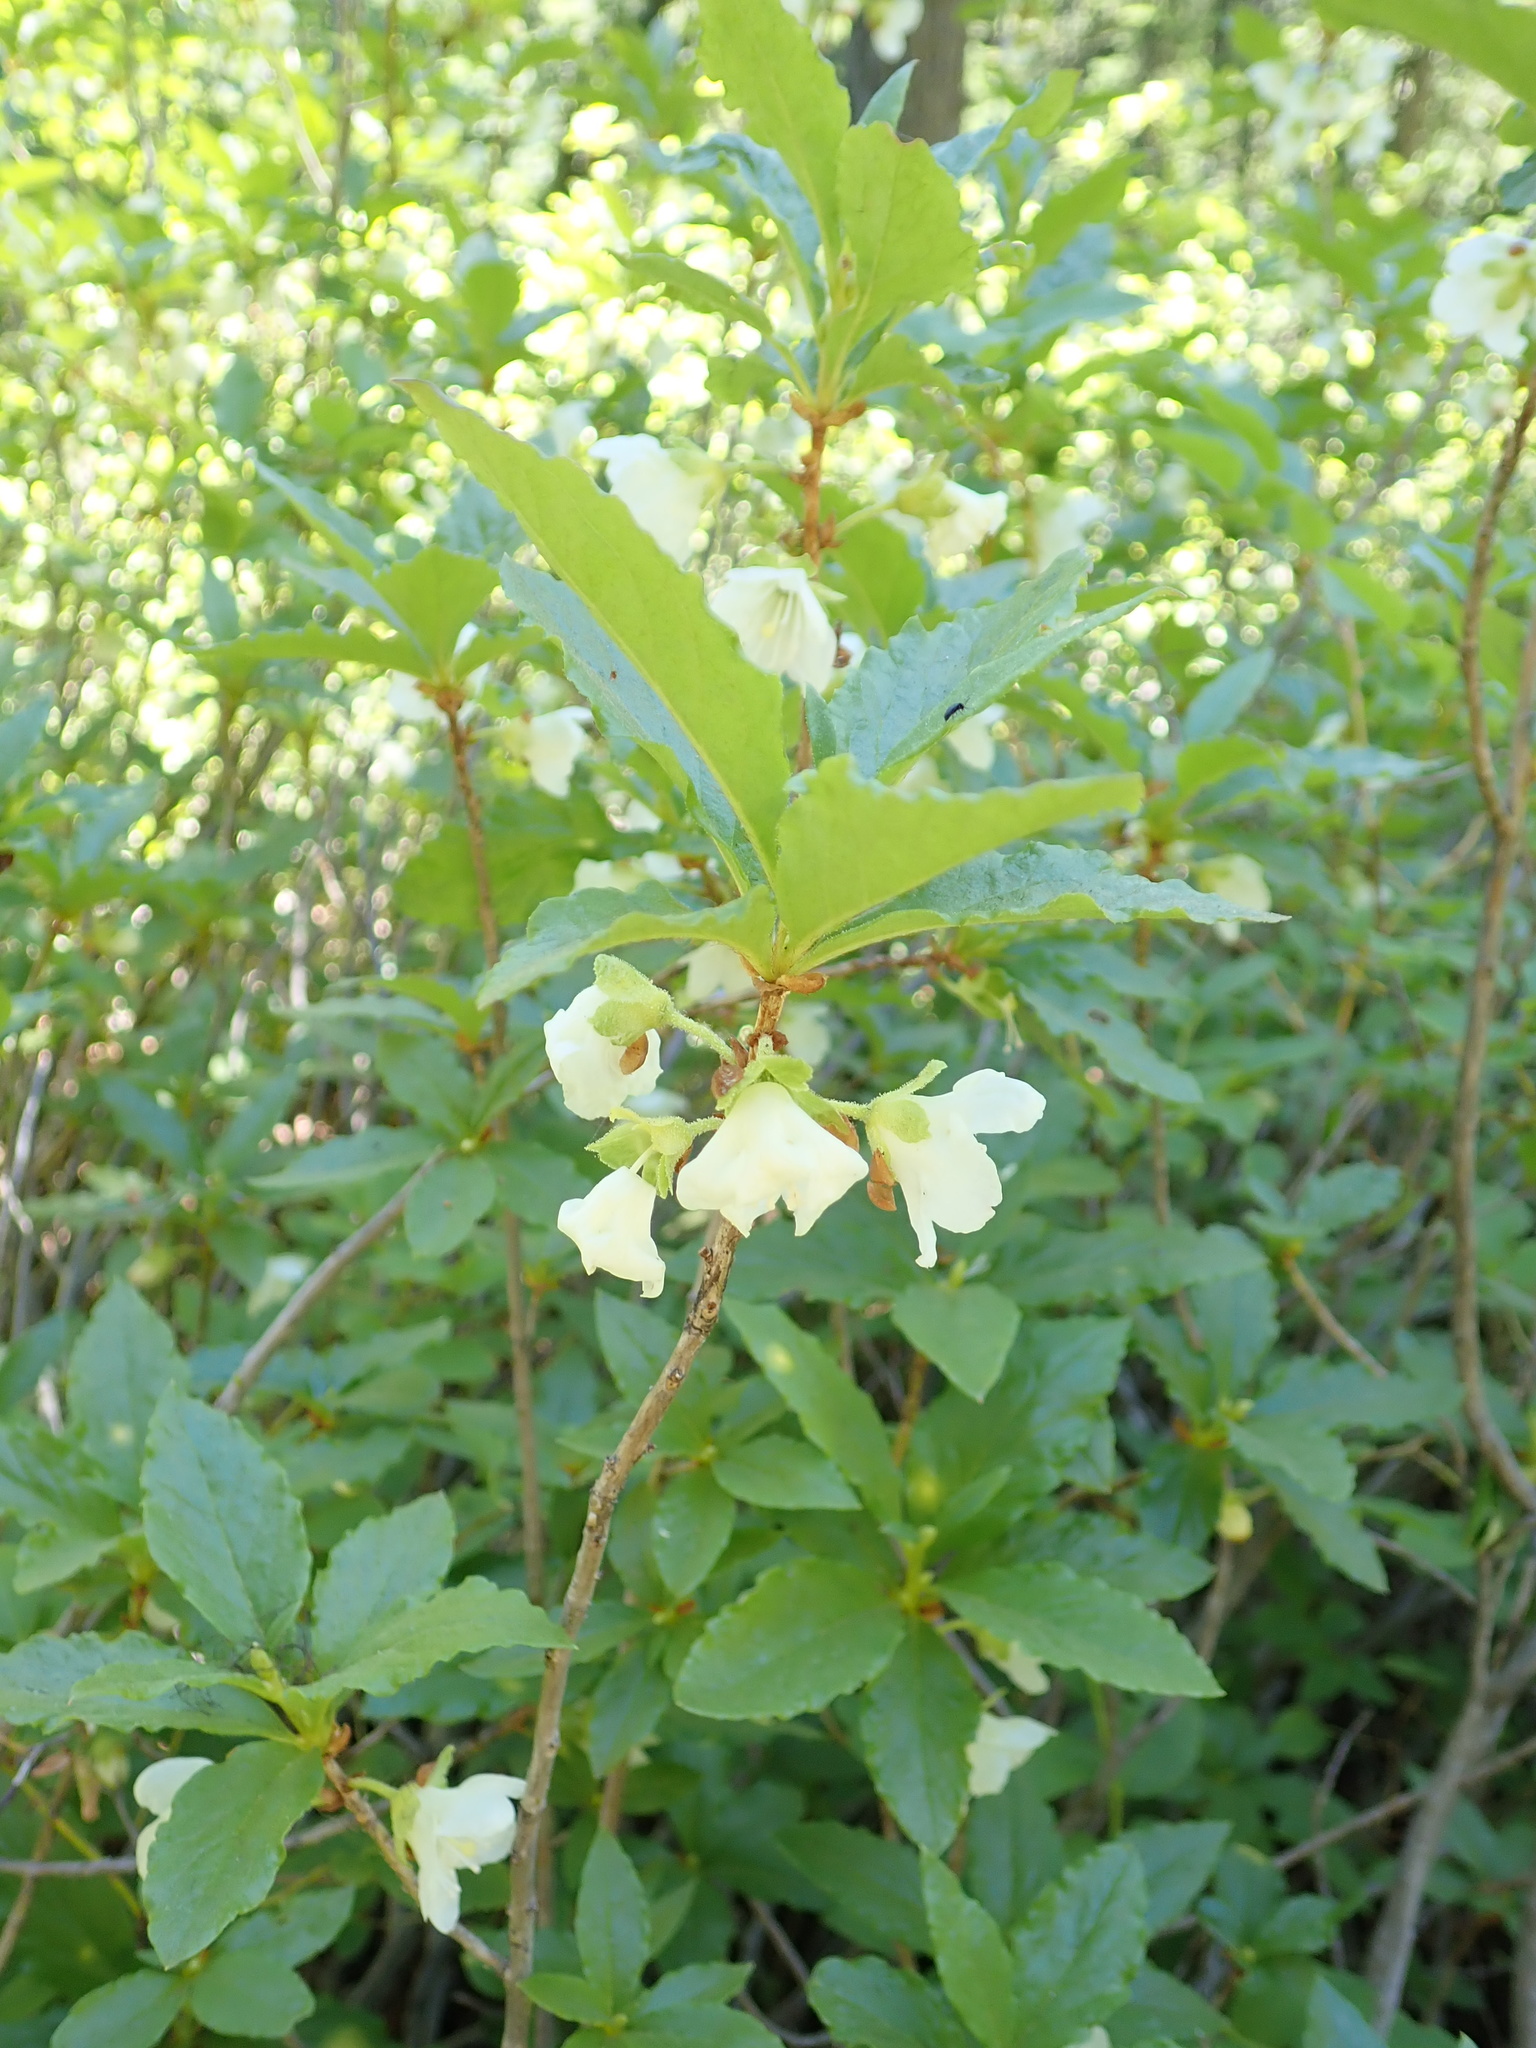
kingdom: Plantae
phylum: Tracheophyta
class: Magnoliopsida
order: Ericales
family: Ericaceae
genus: Rhododendron
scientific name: Rhododendron albiflorum
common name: White rhododendron
